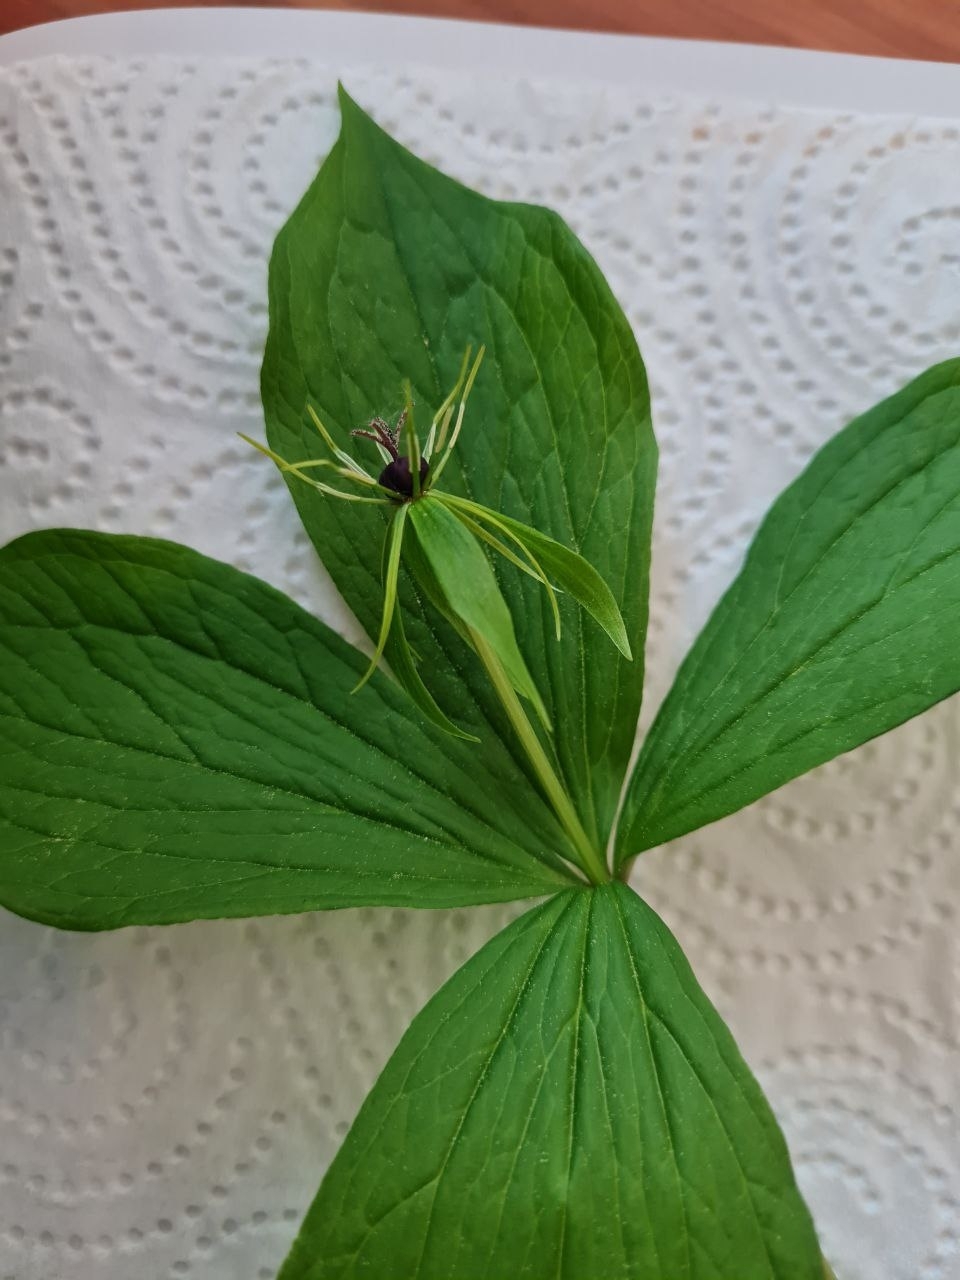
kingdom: Plantae
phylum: Tracheophyta
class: Liliopsida
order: Liliales
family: Melanthiaceae
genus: Paris
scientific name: Paris quadrifolia
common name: Herb-paris
